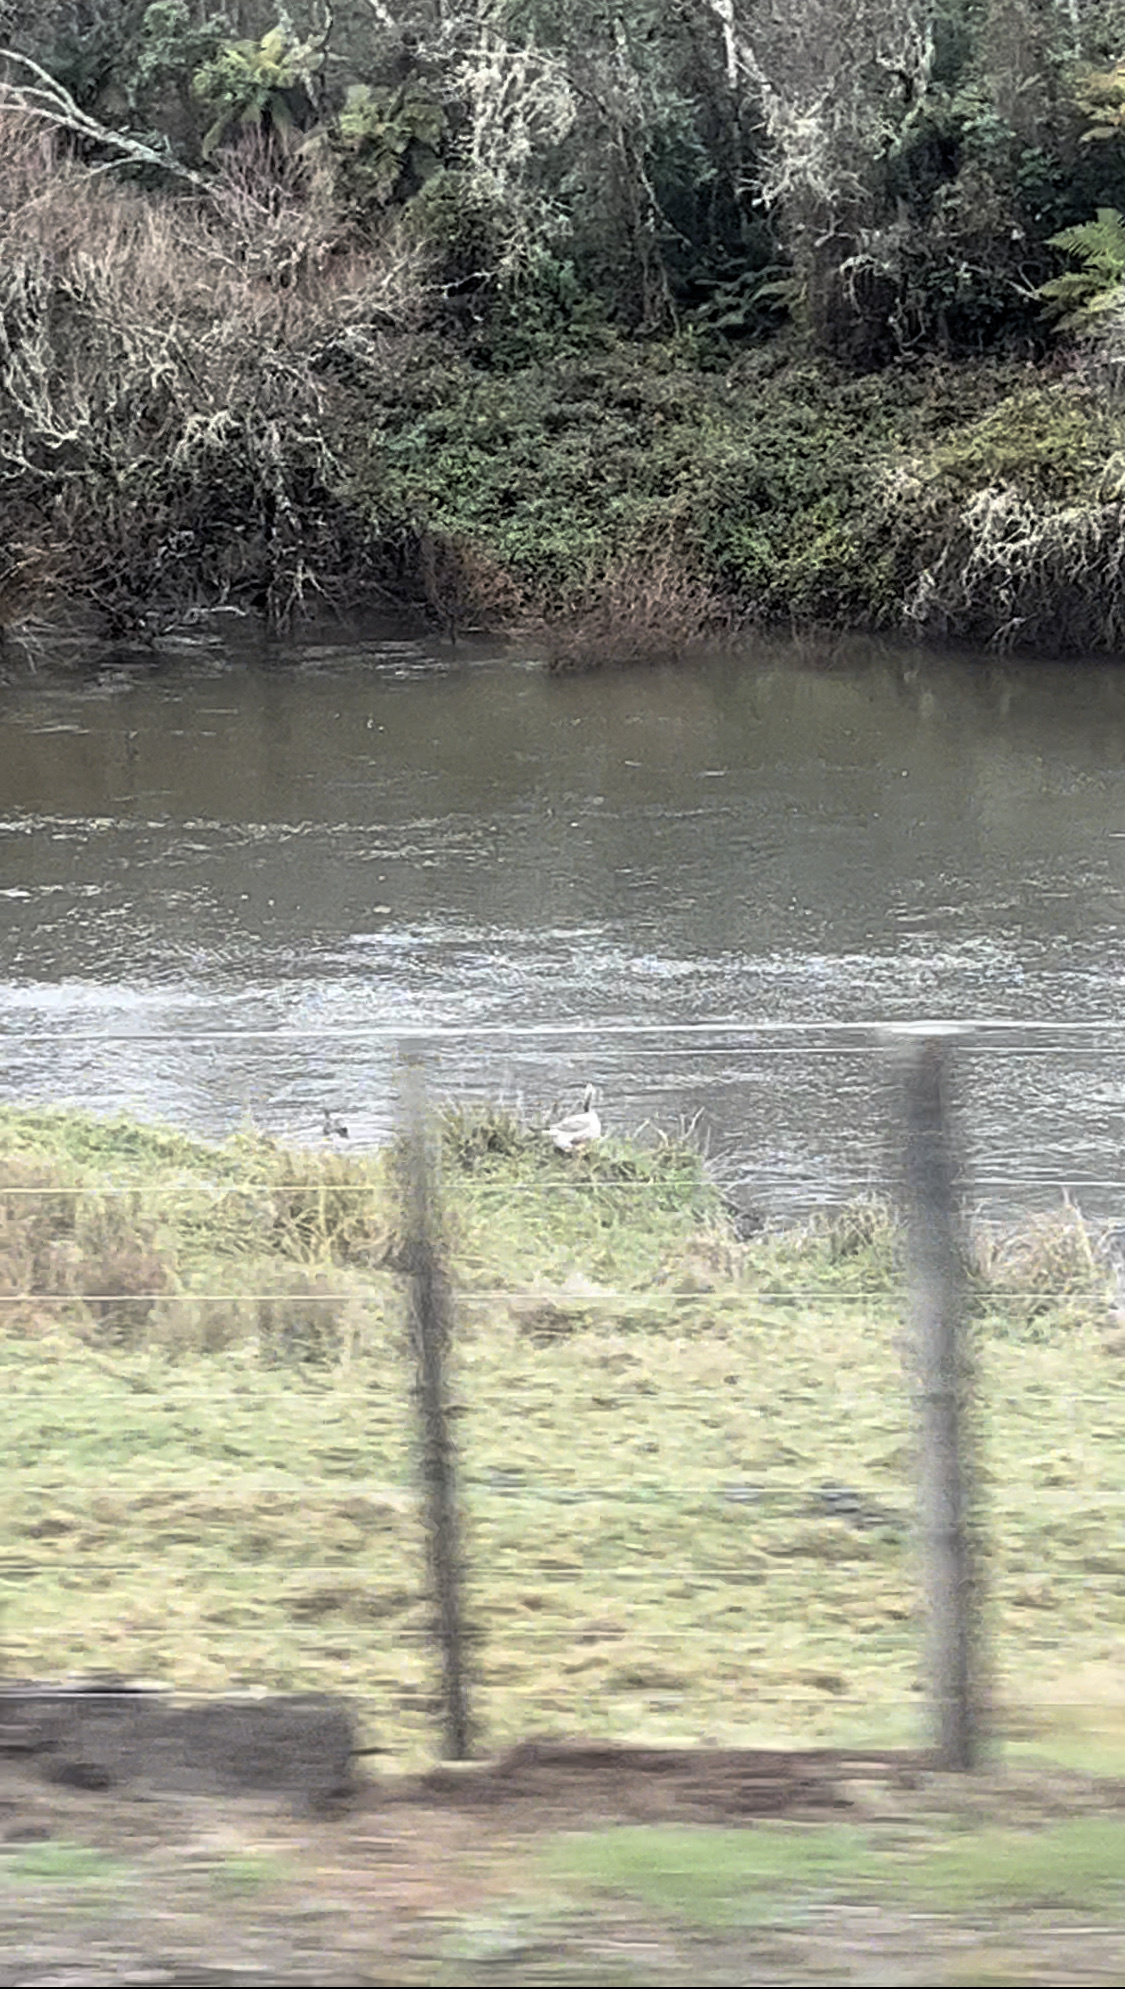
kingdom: Animalia
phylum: Chordata
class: Aves
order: Anseriformes
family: Anatidae
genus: Anser
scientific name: Anser anser
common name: Greylag goose
